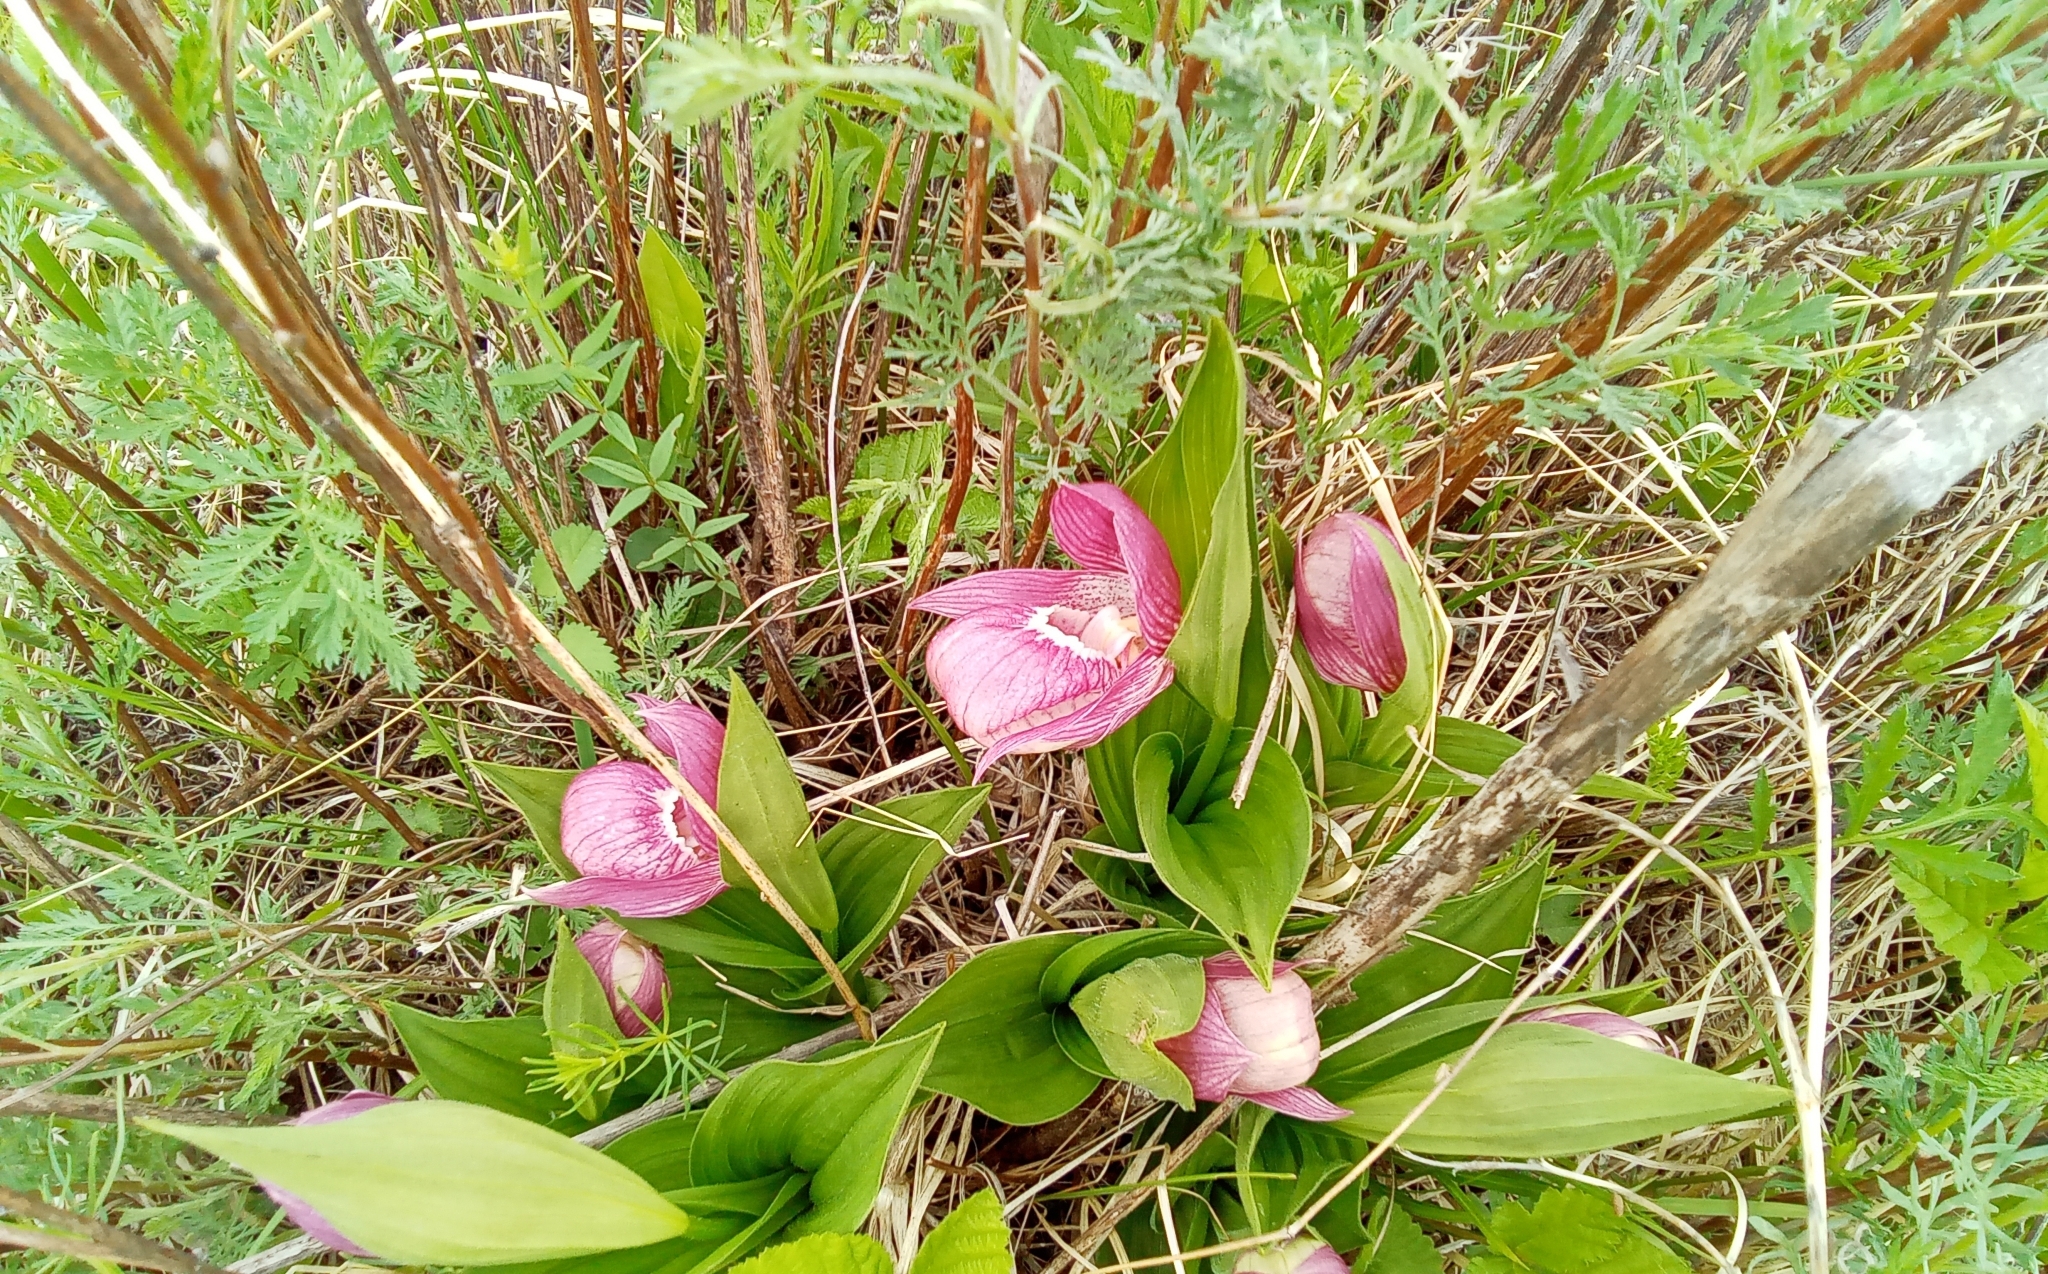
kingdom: Plantae
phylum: Tracheophyta
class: Liliopsida
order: Asparagales
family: Orchidaceae
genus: Cypripedium
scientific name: Cypripedium macranthos
